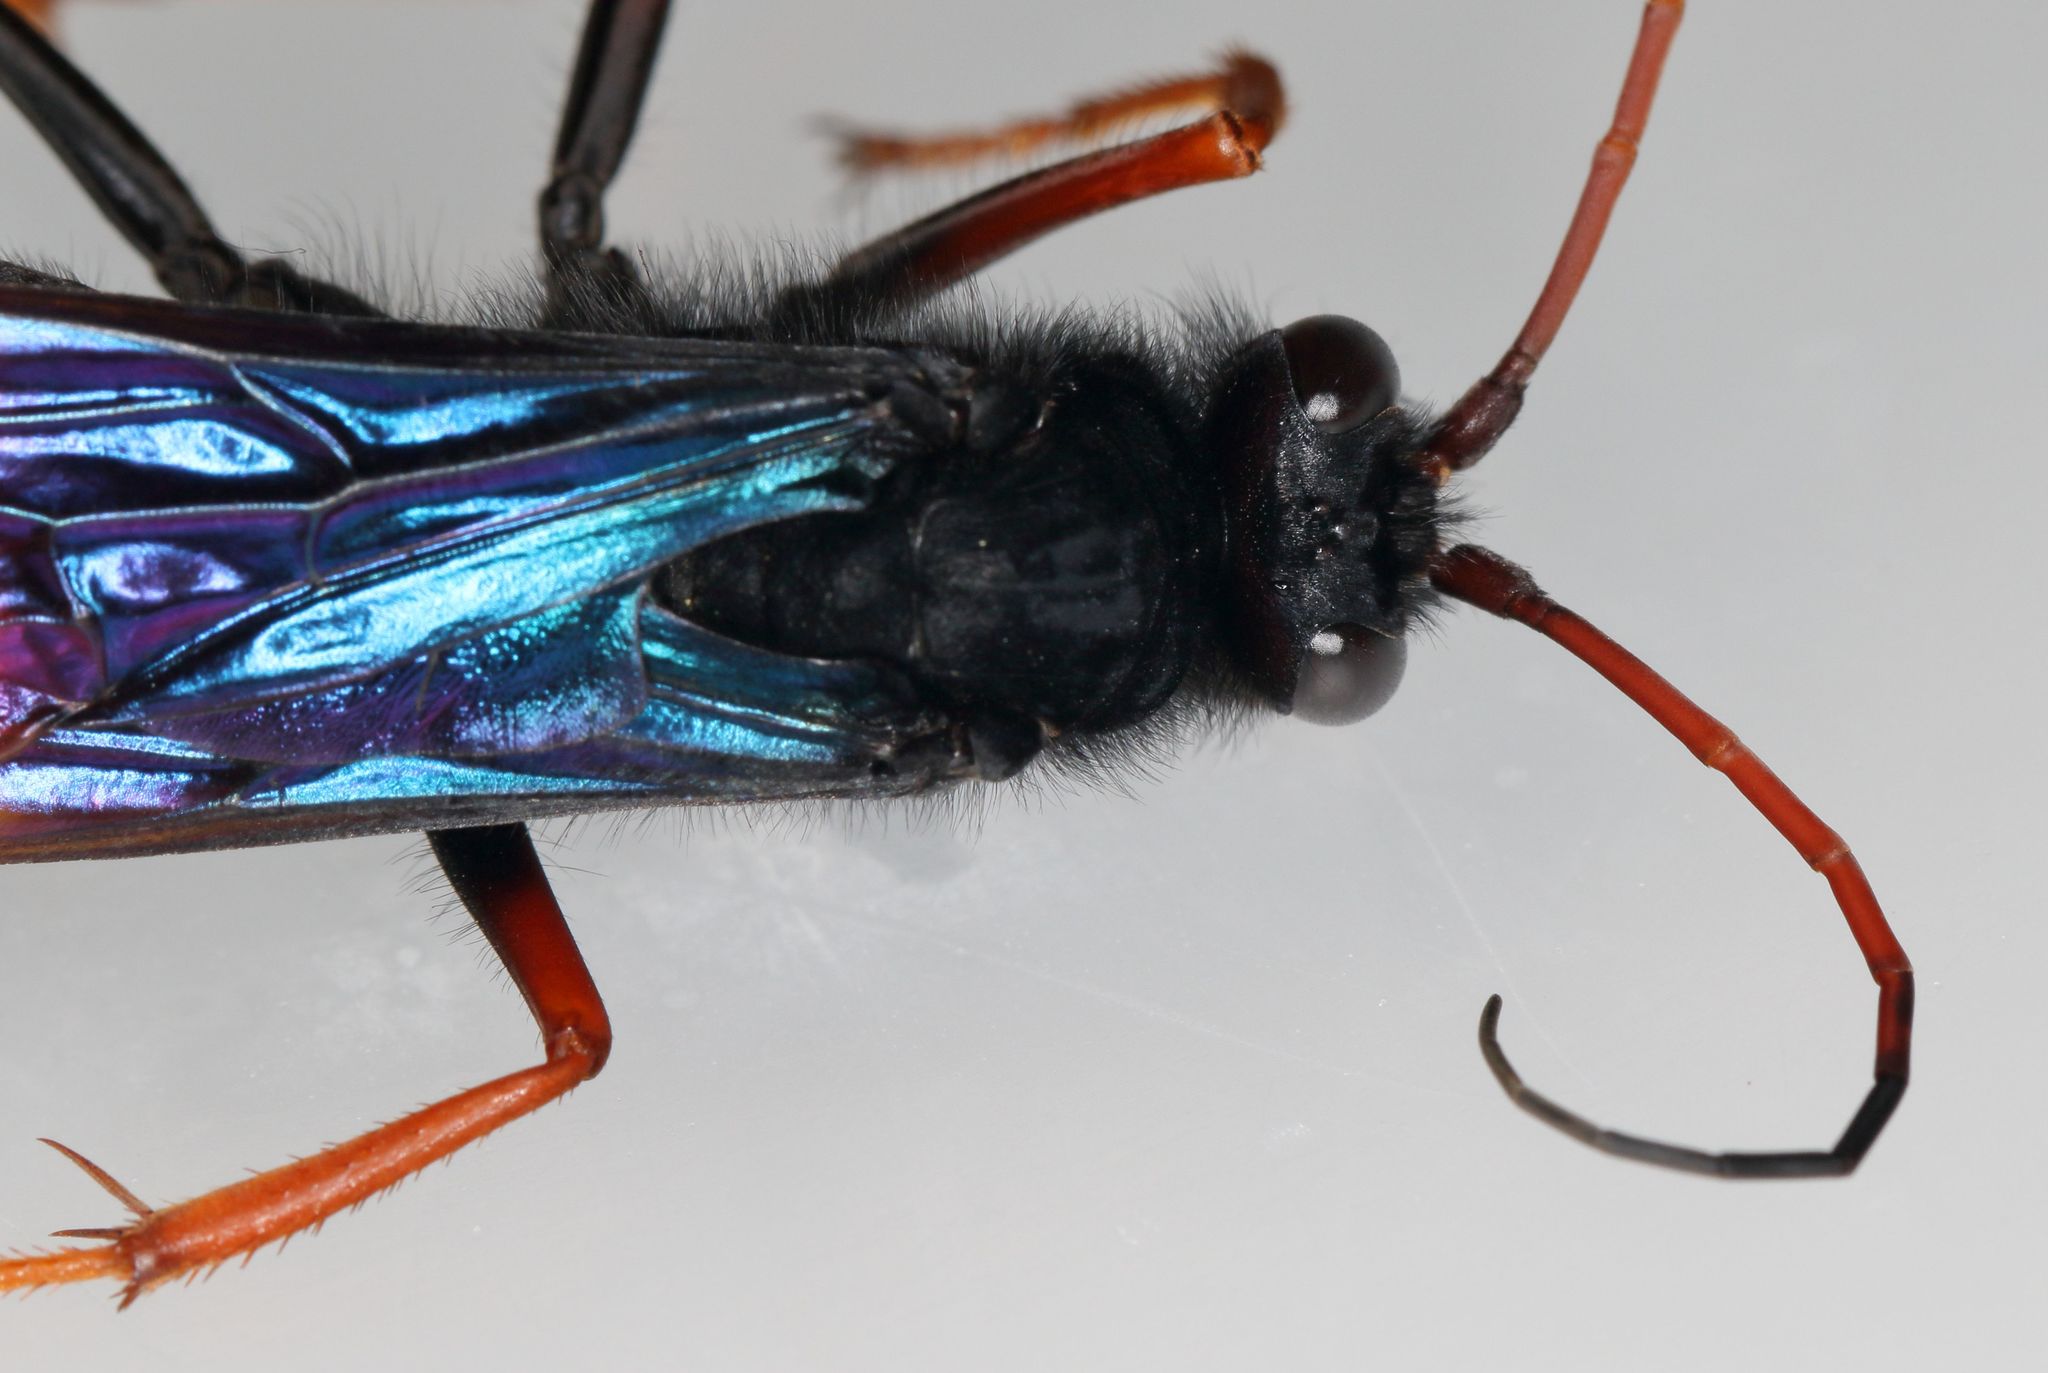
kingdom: Animalia
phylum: Arthropoda
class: Insecta
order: Hymenoptera
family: Pompilidae
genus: Java
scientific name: Java caroliwaterhousei
